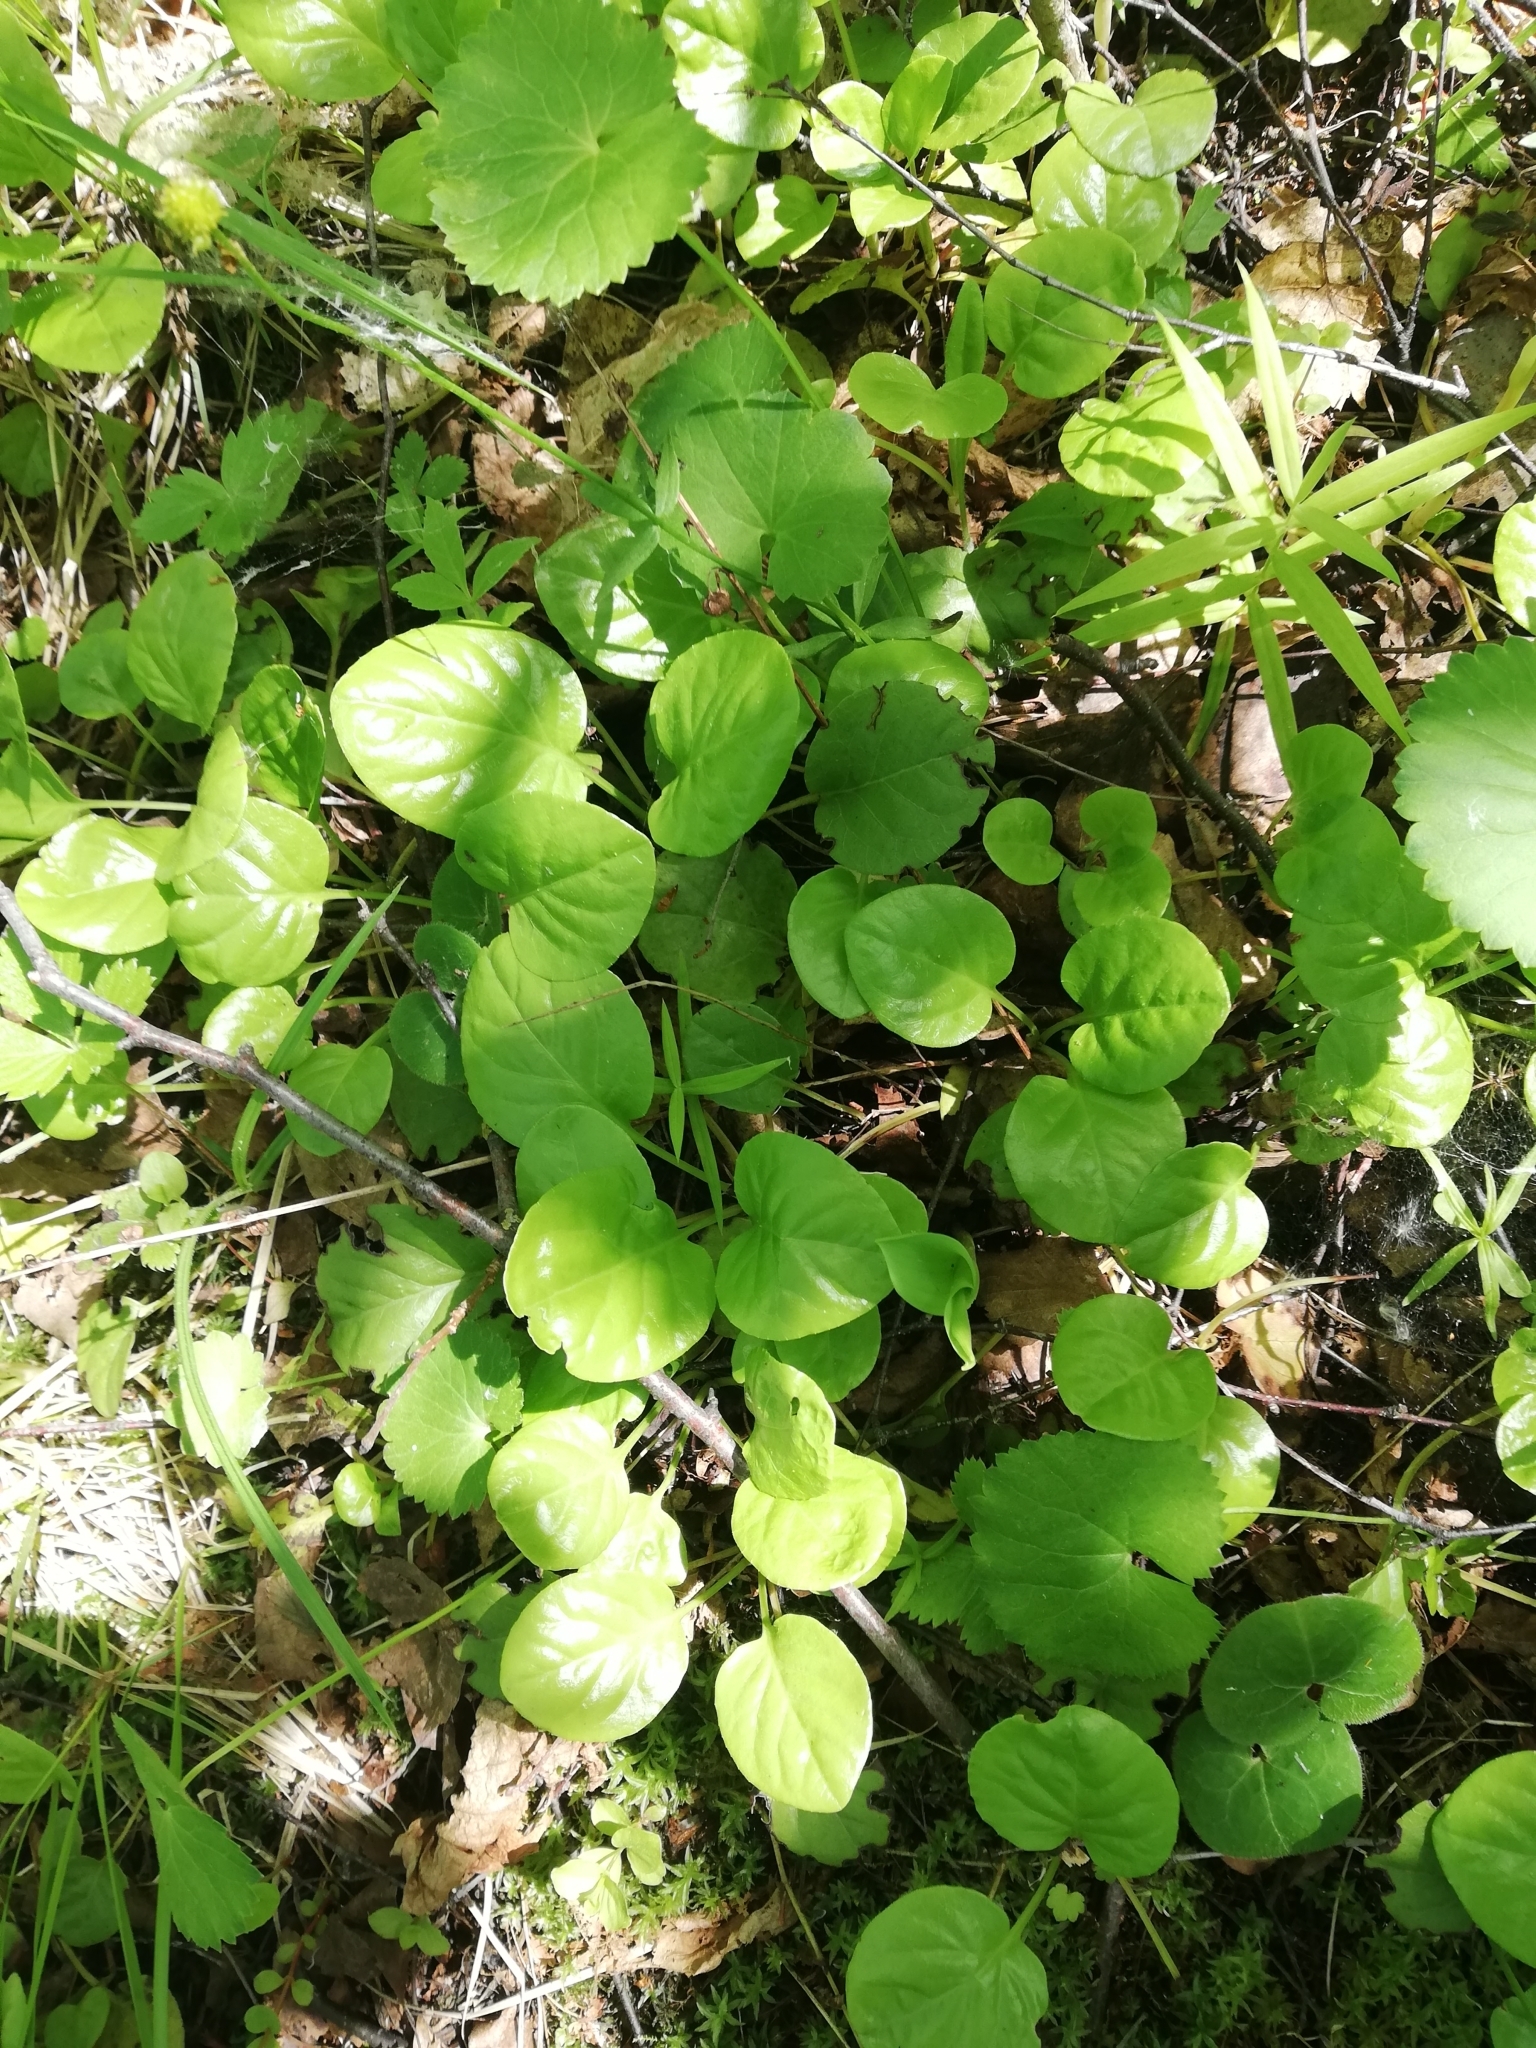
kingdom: Plantae
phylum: Tracheophyta
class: Magnoliopsida
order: Ericales
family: Ericaceae
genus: Pyrola
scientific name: Pyrola rotundifolia
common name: Round-leaved wintergreen
